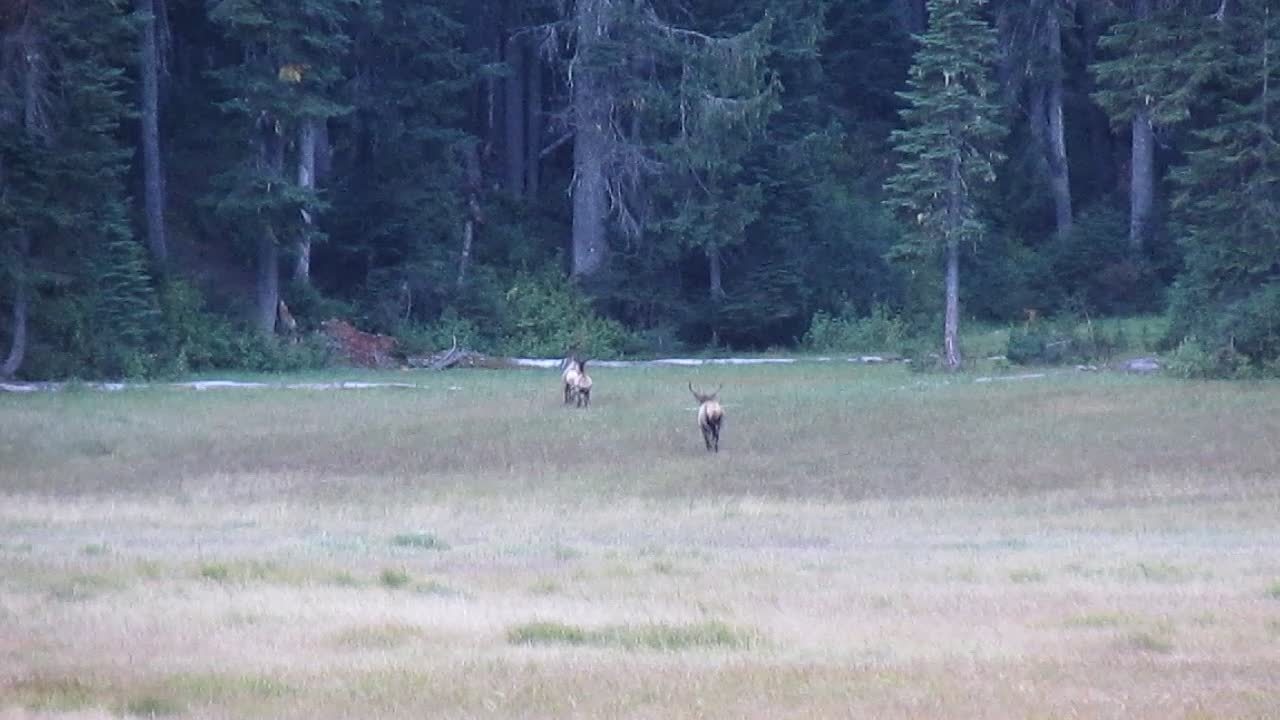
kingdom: Animalia
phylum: Chordata
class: Mammalia
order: Artiodactyla
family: Cervidae
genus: Cervus
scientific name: Cervus elaphus
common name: Red deer
